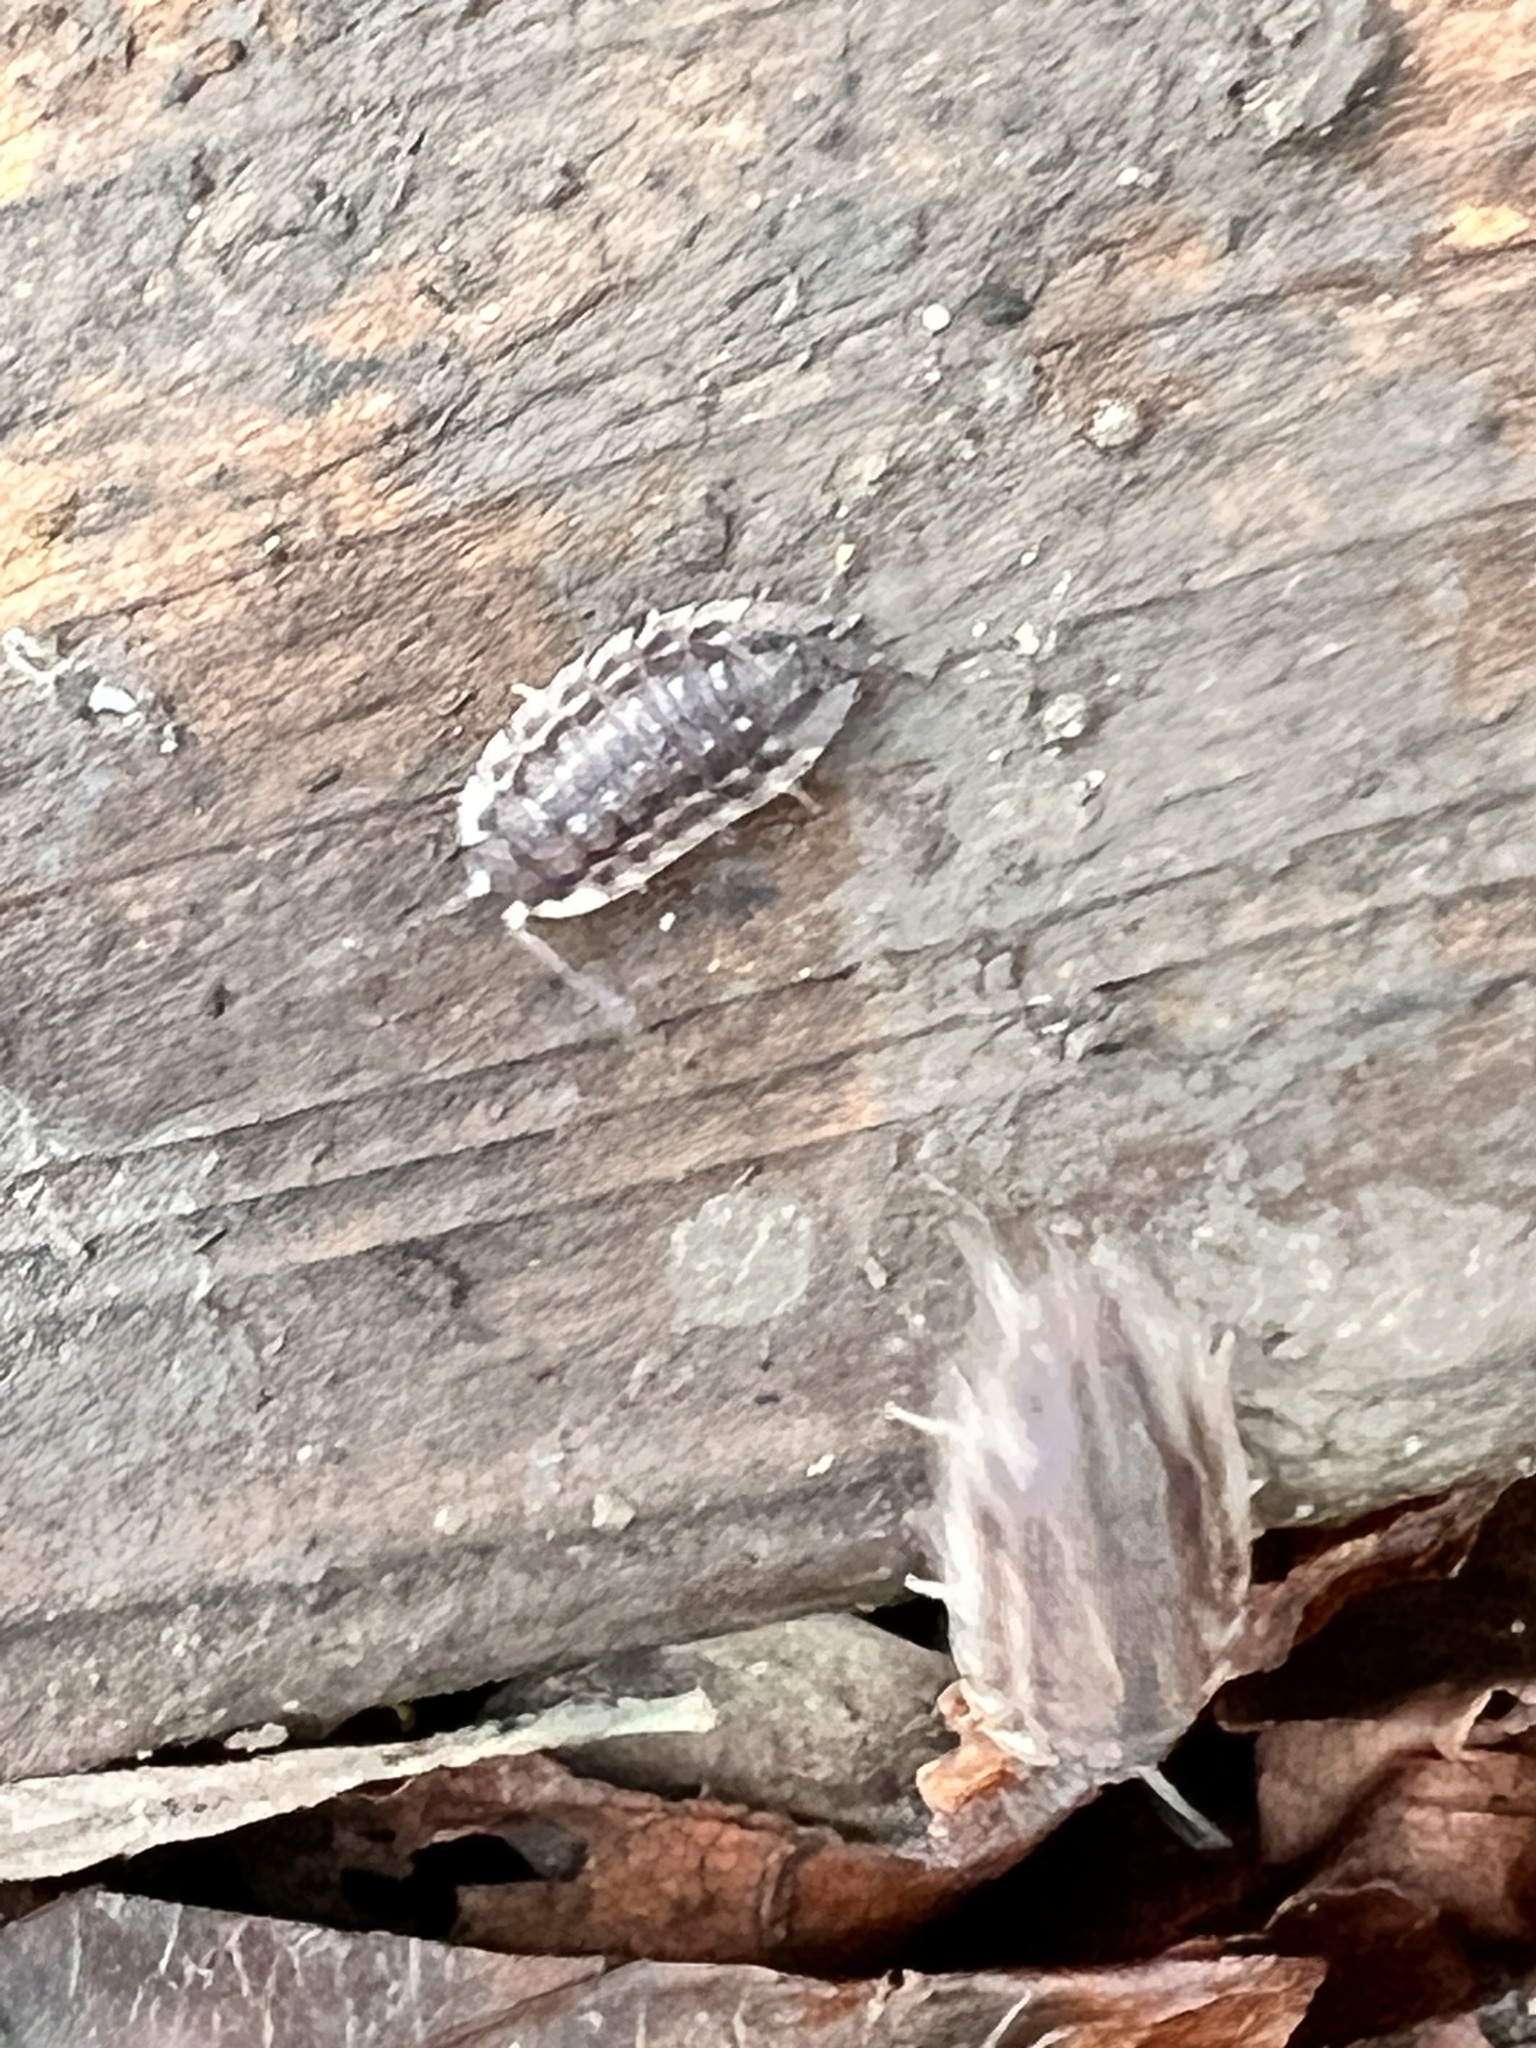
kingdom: Animalia
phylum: Arthropoda
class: Malacostraca
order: Isopoda
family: Oniscidae
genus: Oniscus
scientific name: Oniscus asellus
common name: Common shiny woodlouse
